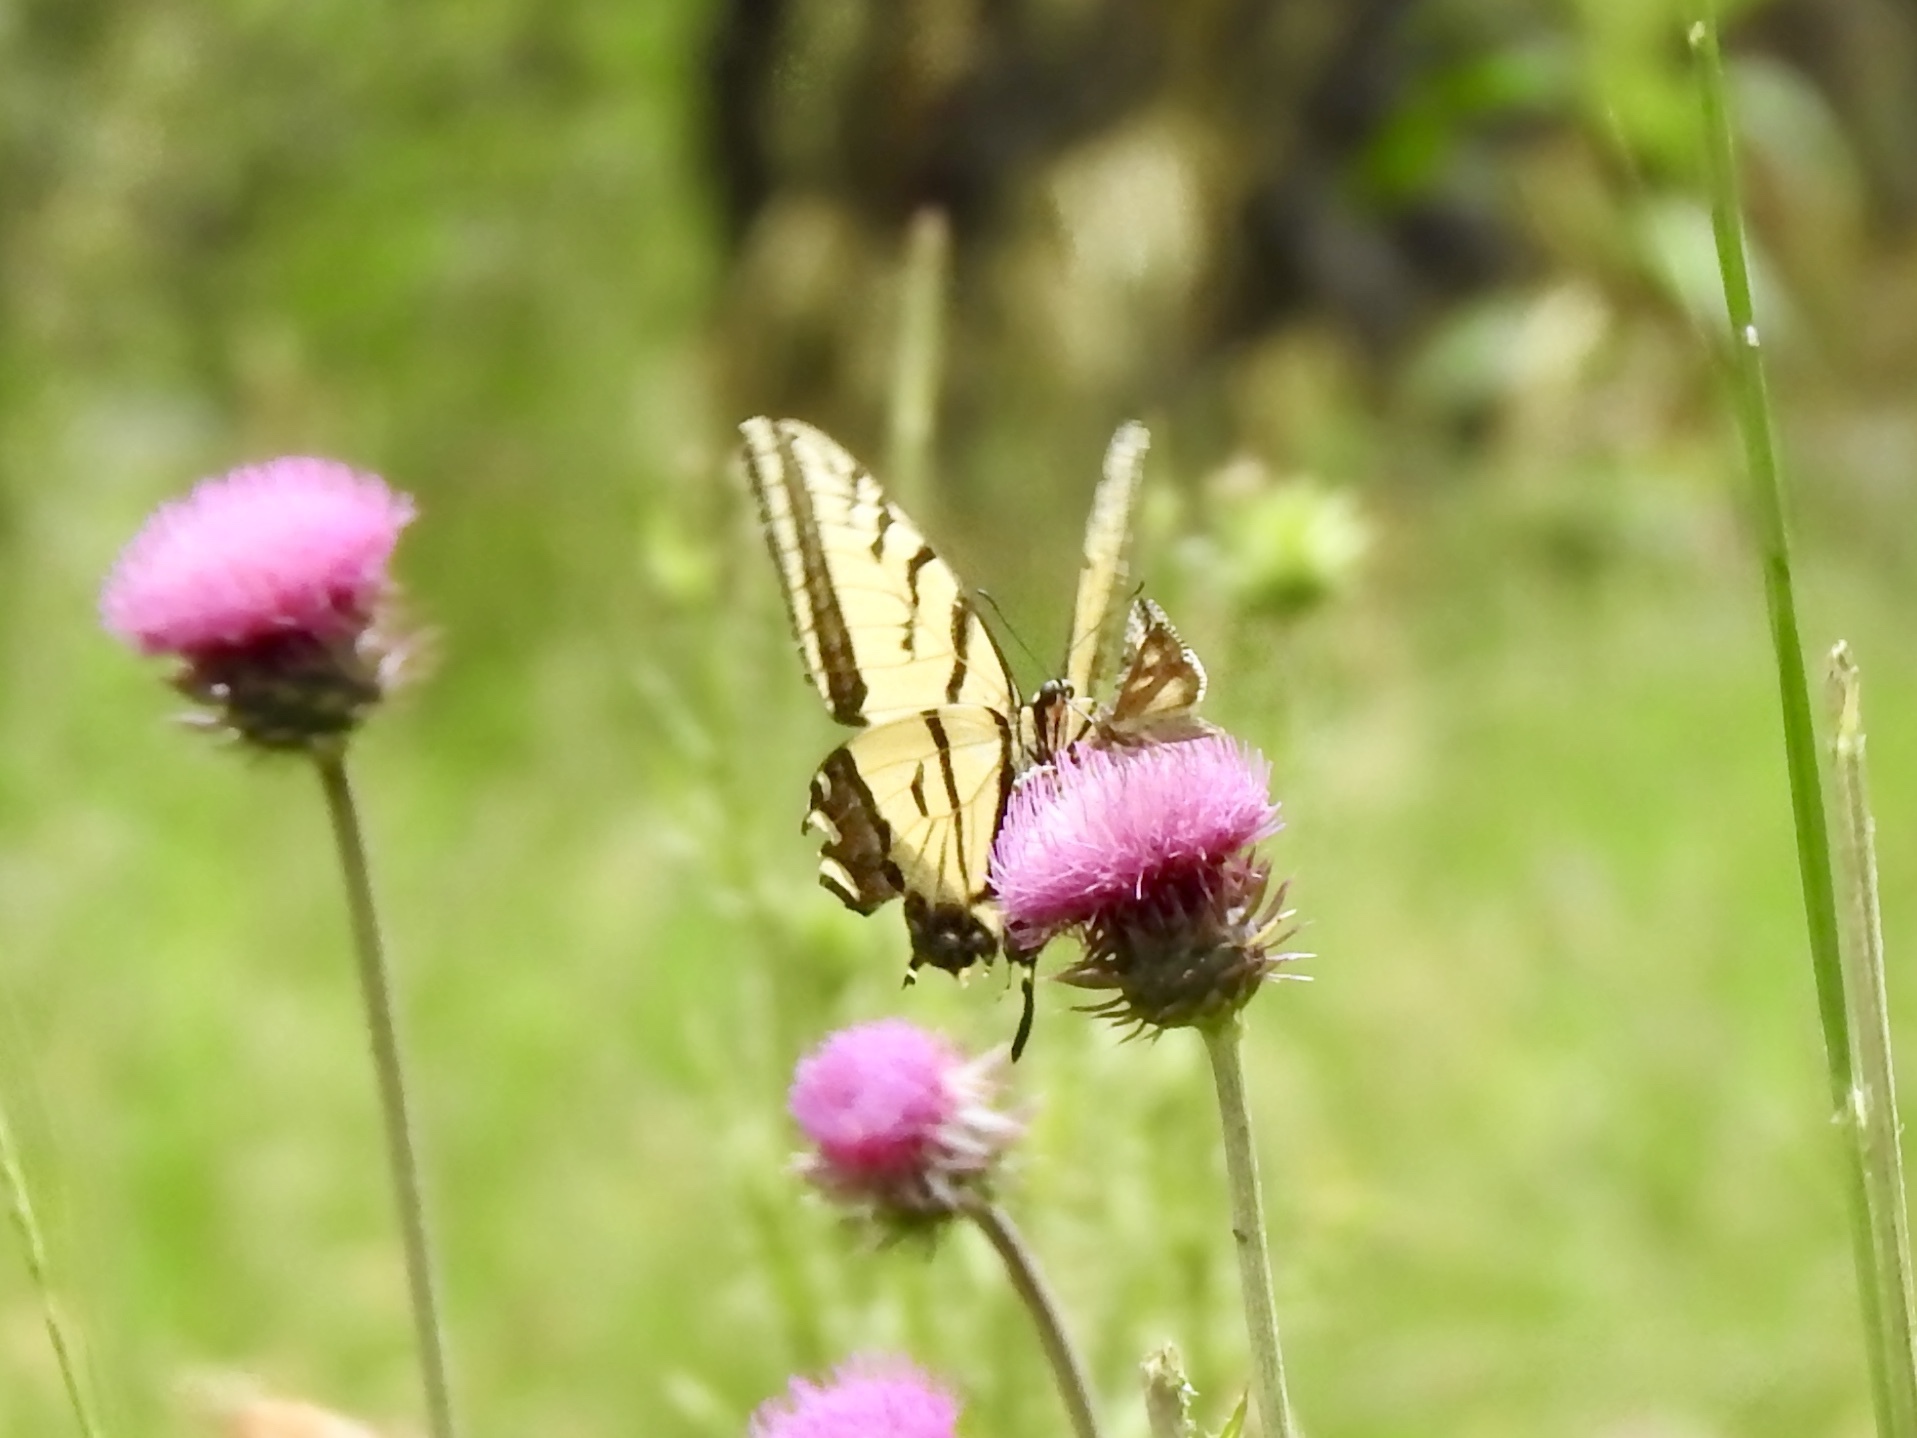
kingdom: Animalia
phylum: Arthropoda
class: Insecta
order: Lepidoptera
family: Papilionidae
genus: Papilio
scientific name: Papilio multicaudata
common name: Two-tailed tiger swallowtail
